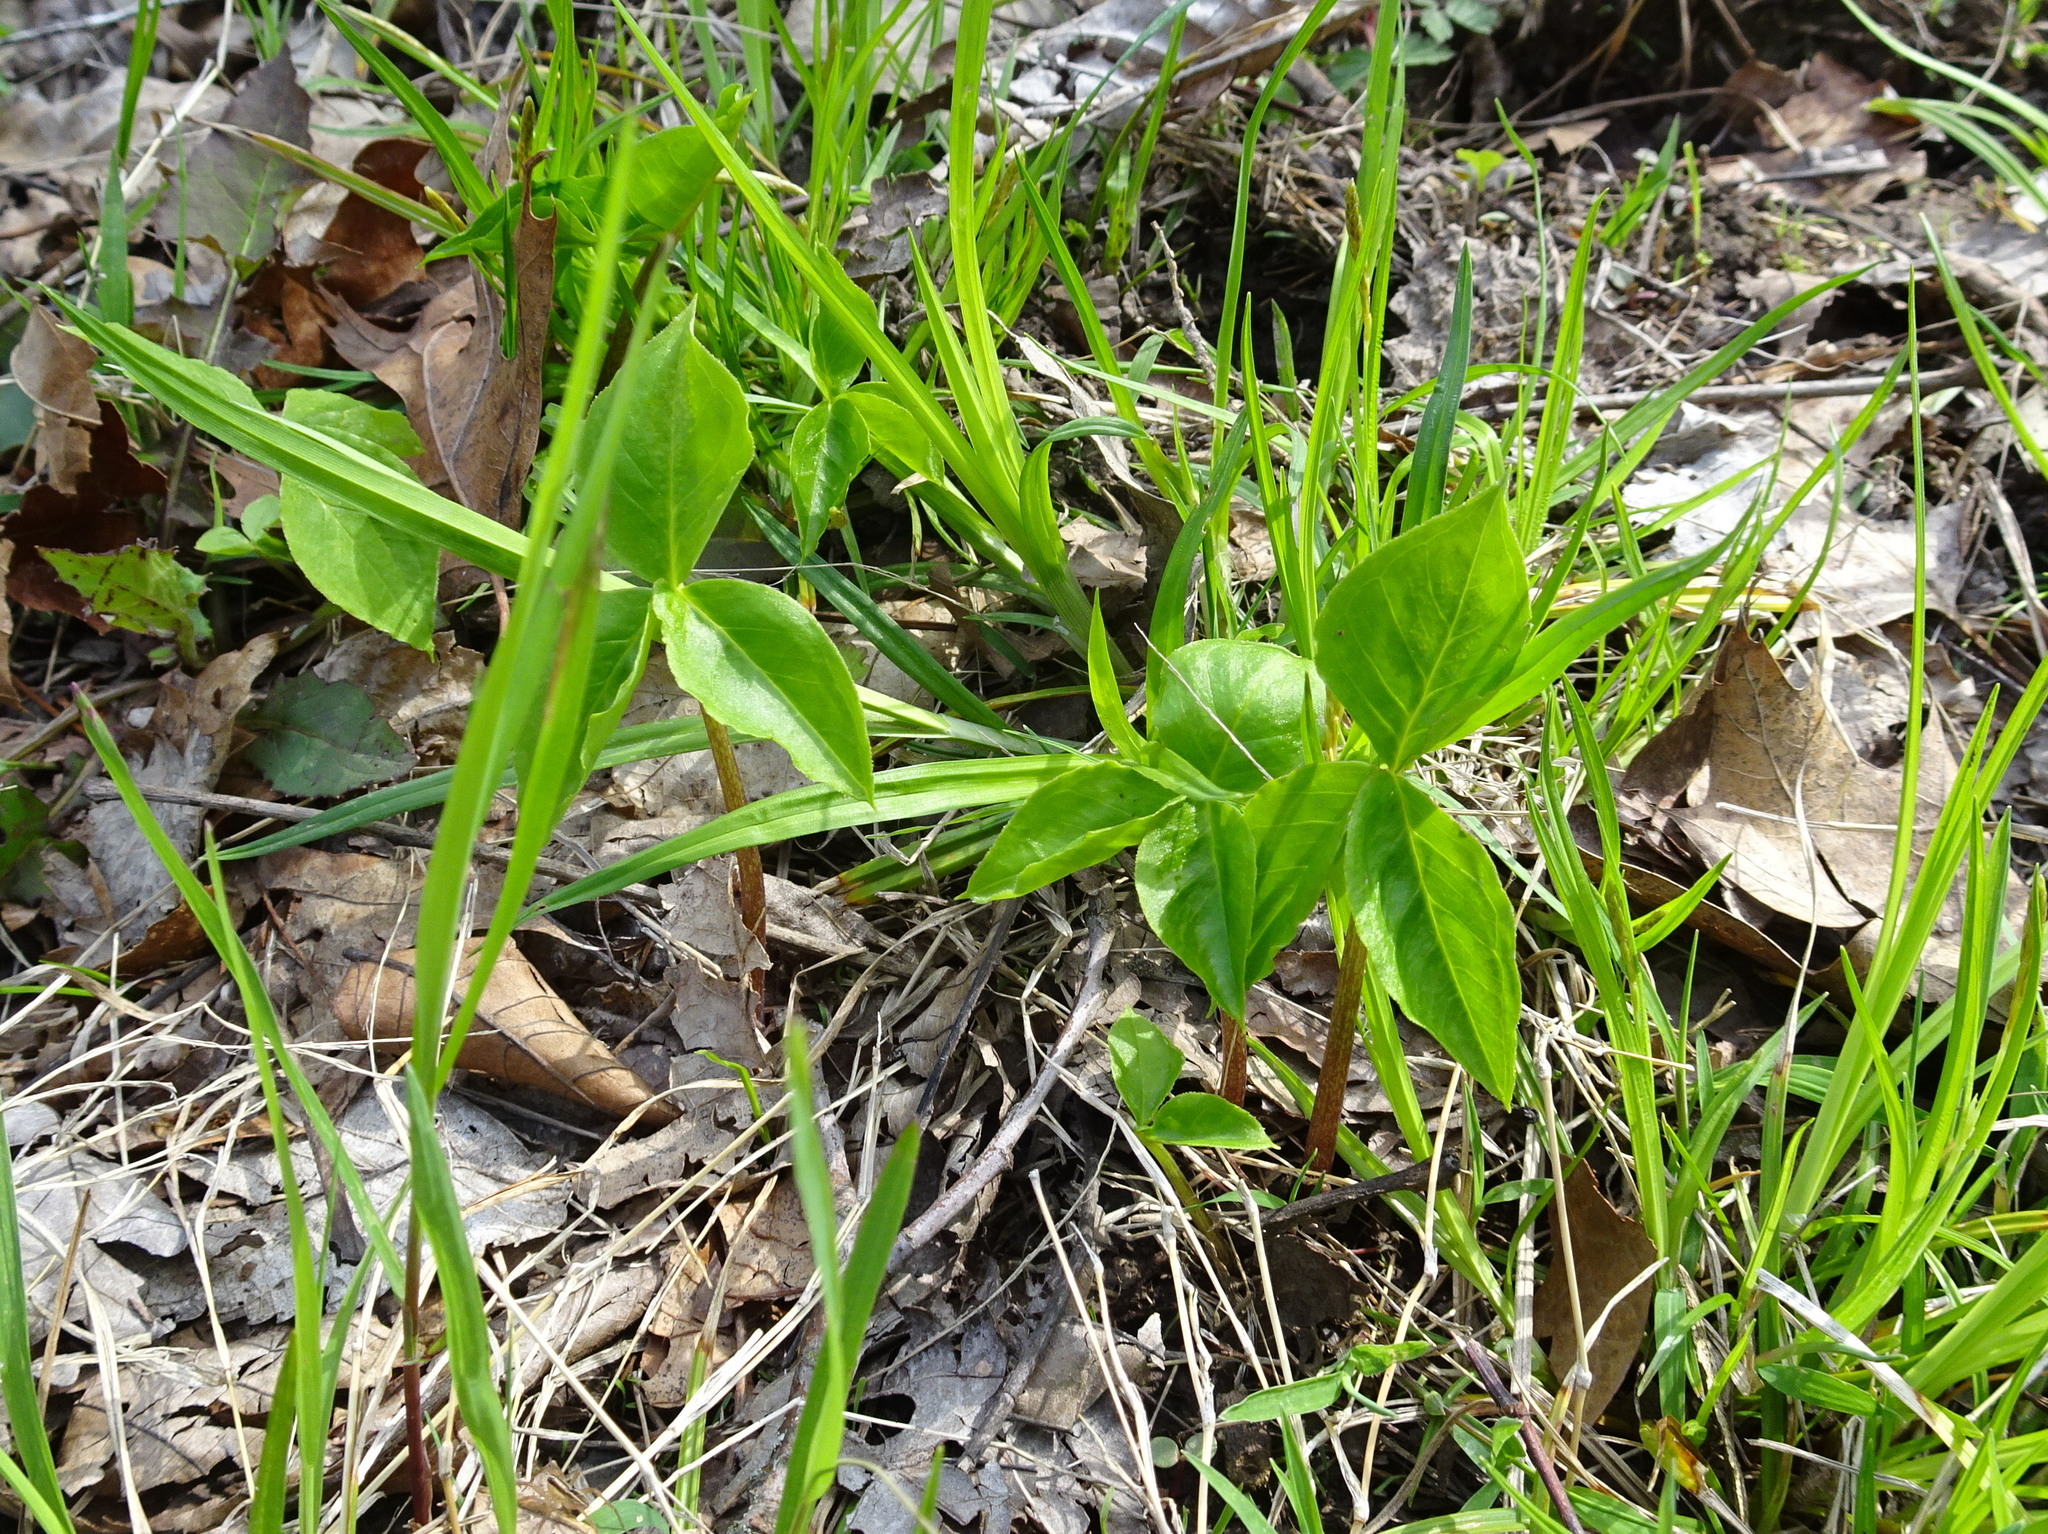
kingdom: Plantae
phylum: Tracheophyta
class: Liliopsida
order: Alismatales
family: Araceae
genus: Arisaema
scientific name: Arisaema triphyllum
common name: Jack-in-the-pulpit
